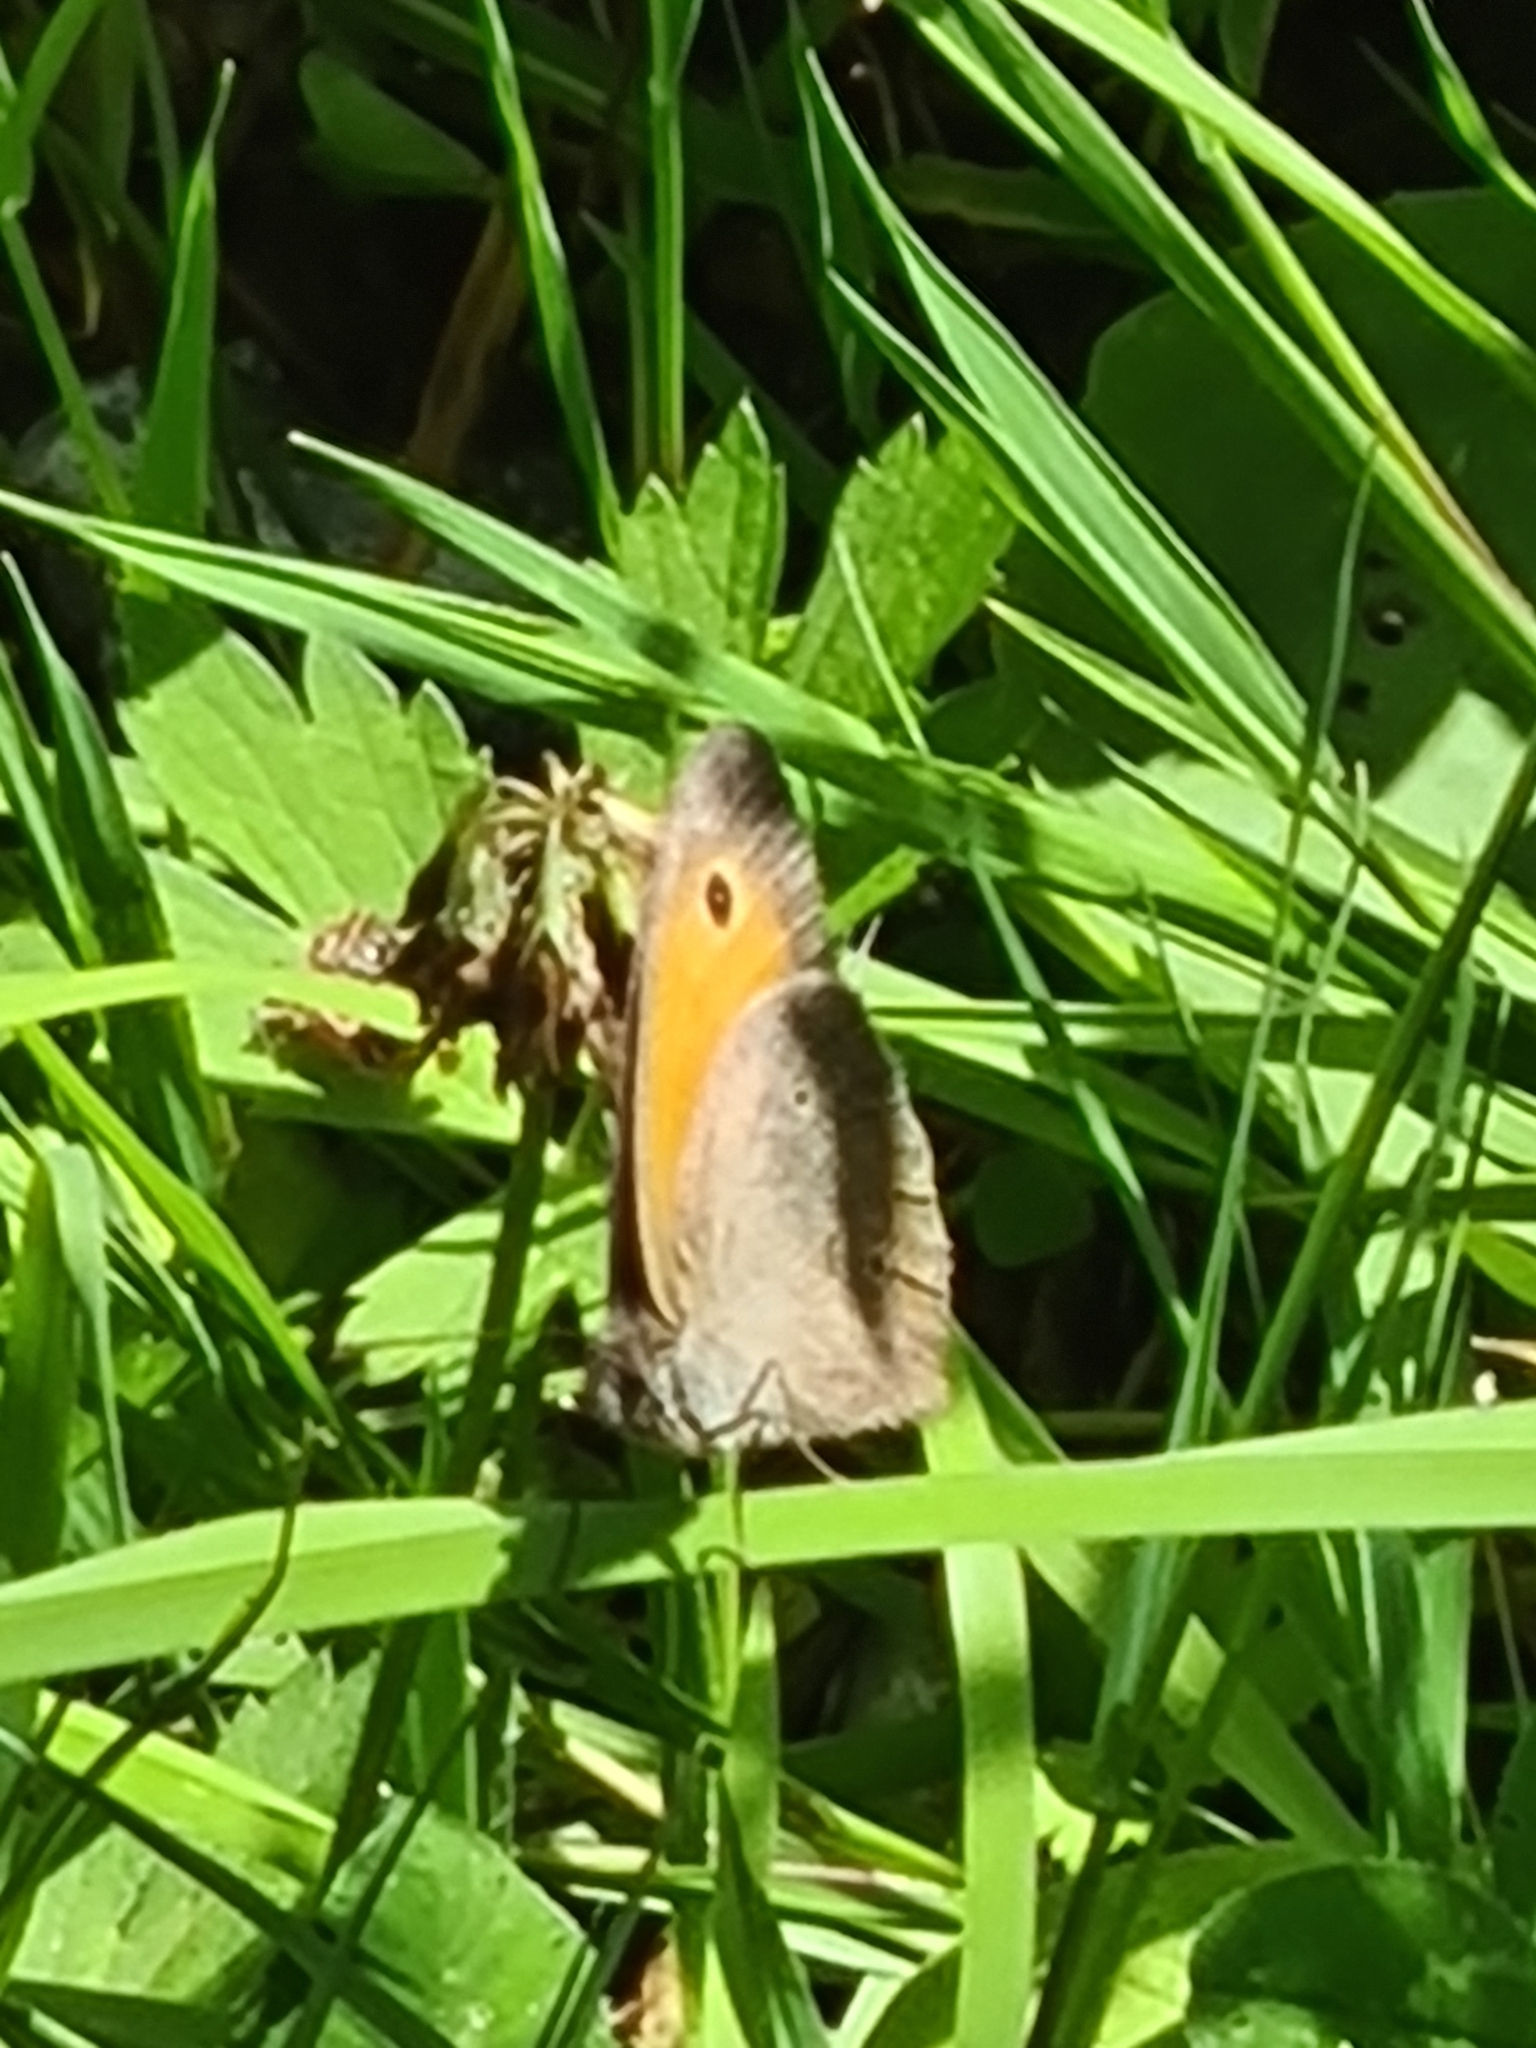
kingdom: Animalia
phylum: Arthropoda
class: Insecta
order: Lepidoptera
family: Nymphalidae
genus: Maniola
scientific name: Maniola jurtina
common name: Meadow brown
